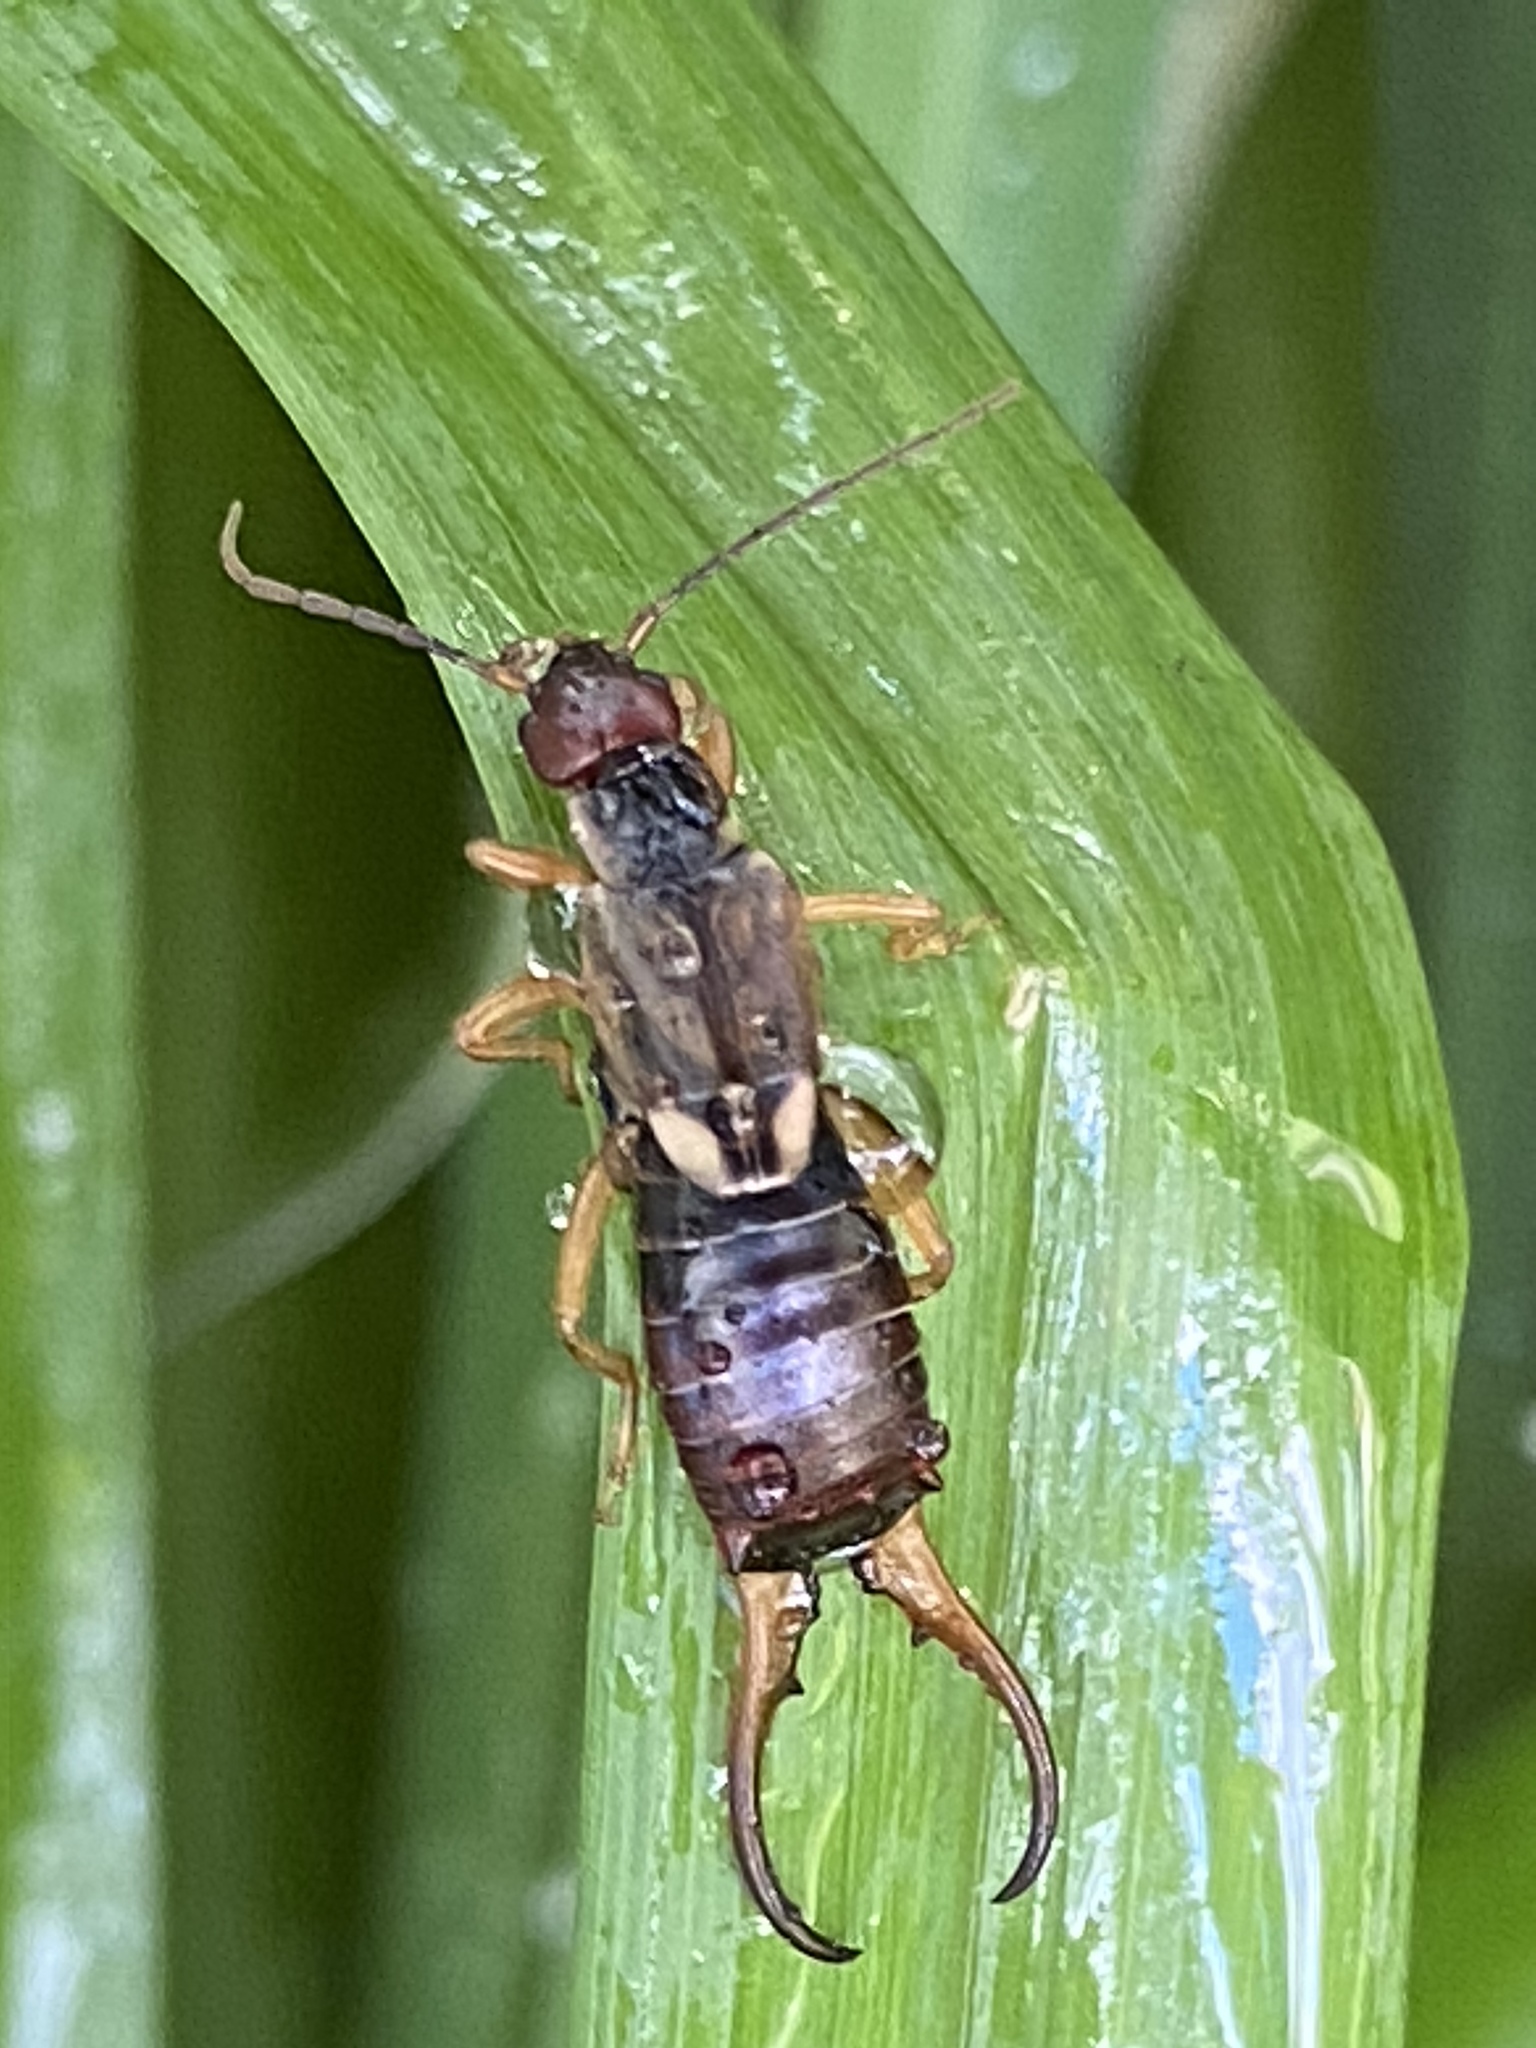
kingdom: Animalia
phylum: Arthropoda
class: Insecta
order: Dermaptera
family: Forficulidae
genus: Forficula
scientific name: Forficula
